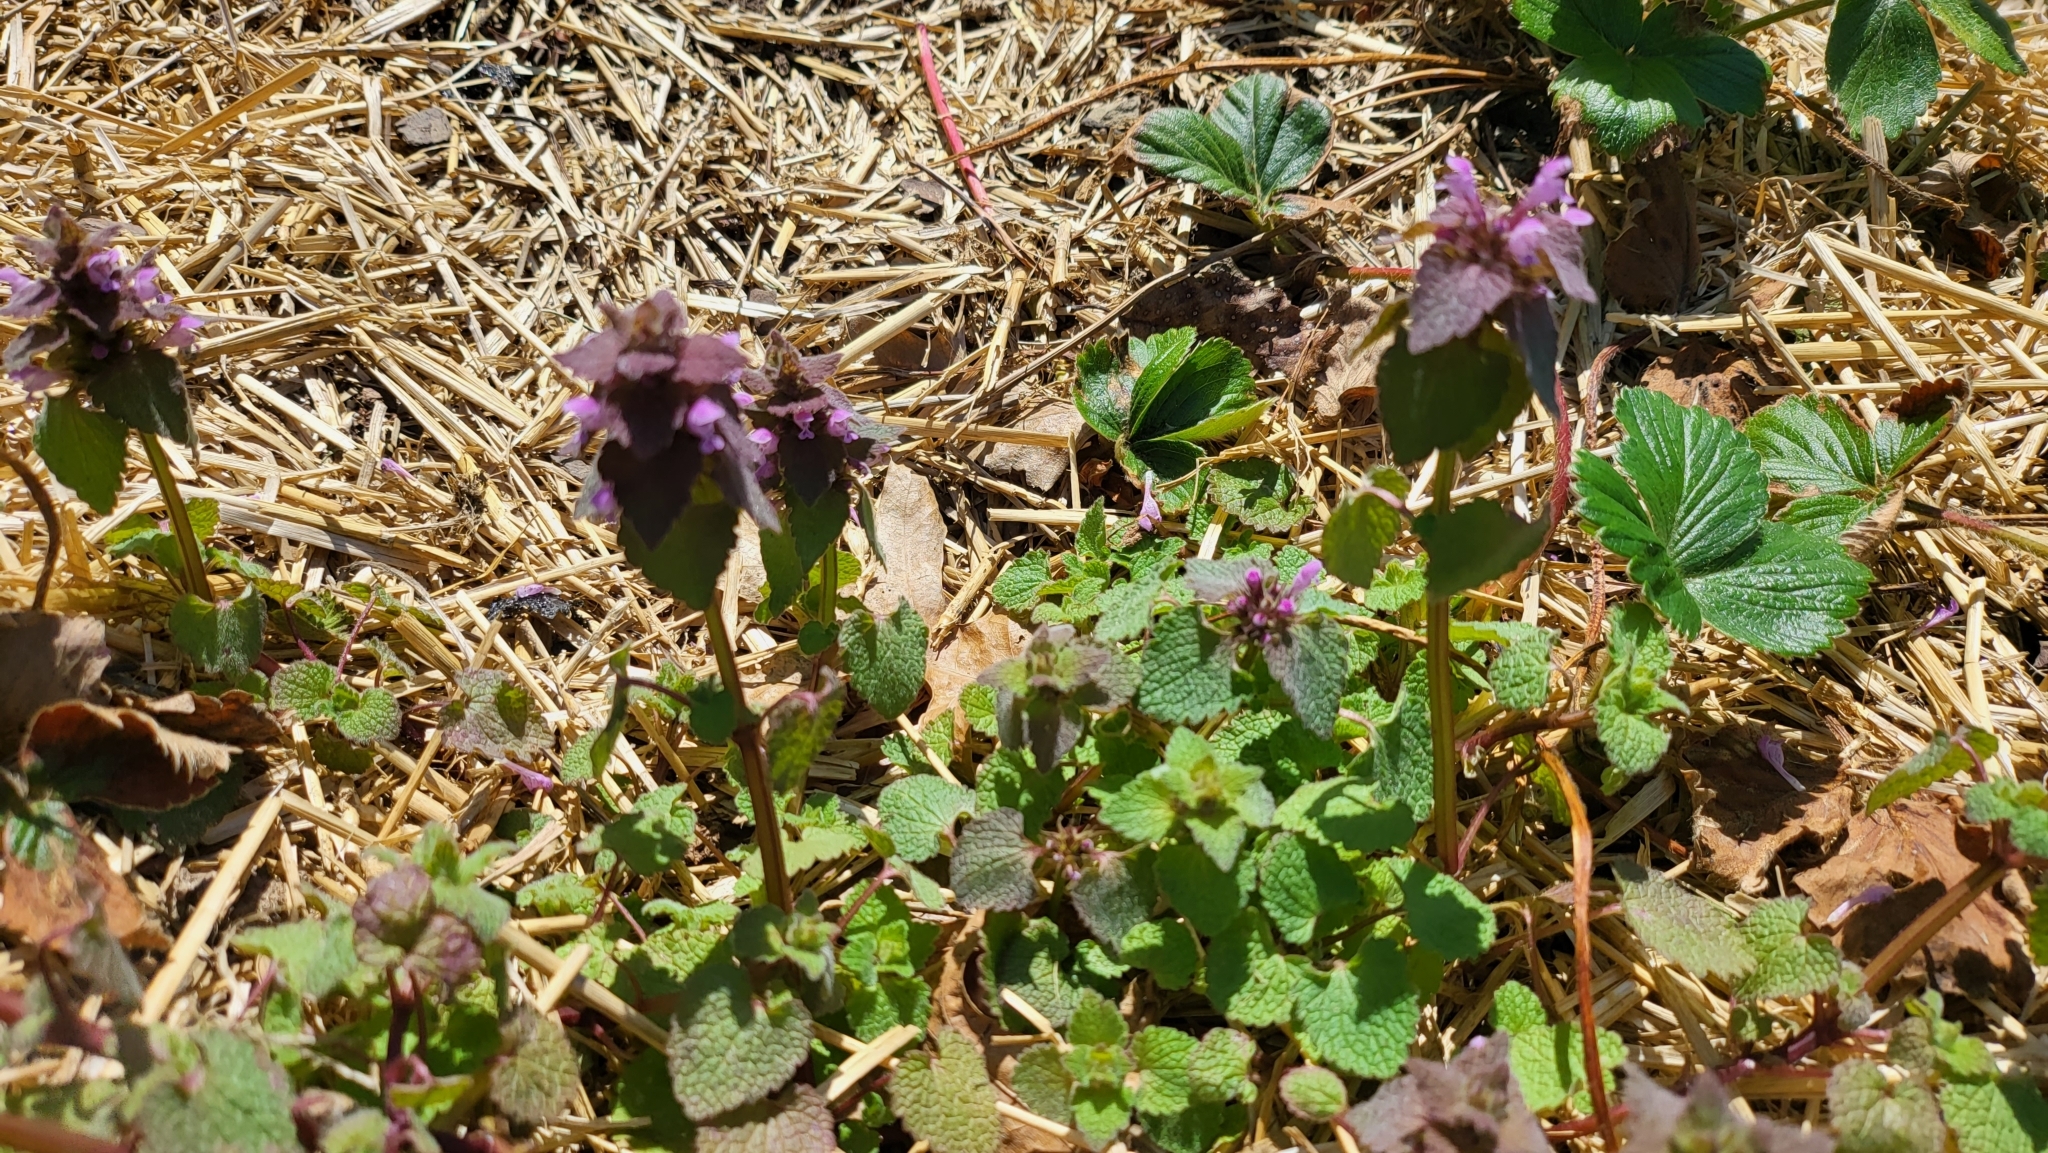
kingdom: Plantae
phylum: Tracheophyta
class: Magnoliopsida
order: Lamiales
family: Lamiaceae
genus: Lamium
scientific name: Lamium purpureum
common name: Red dead-nettle
